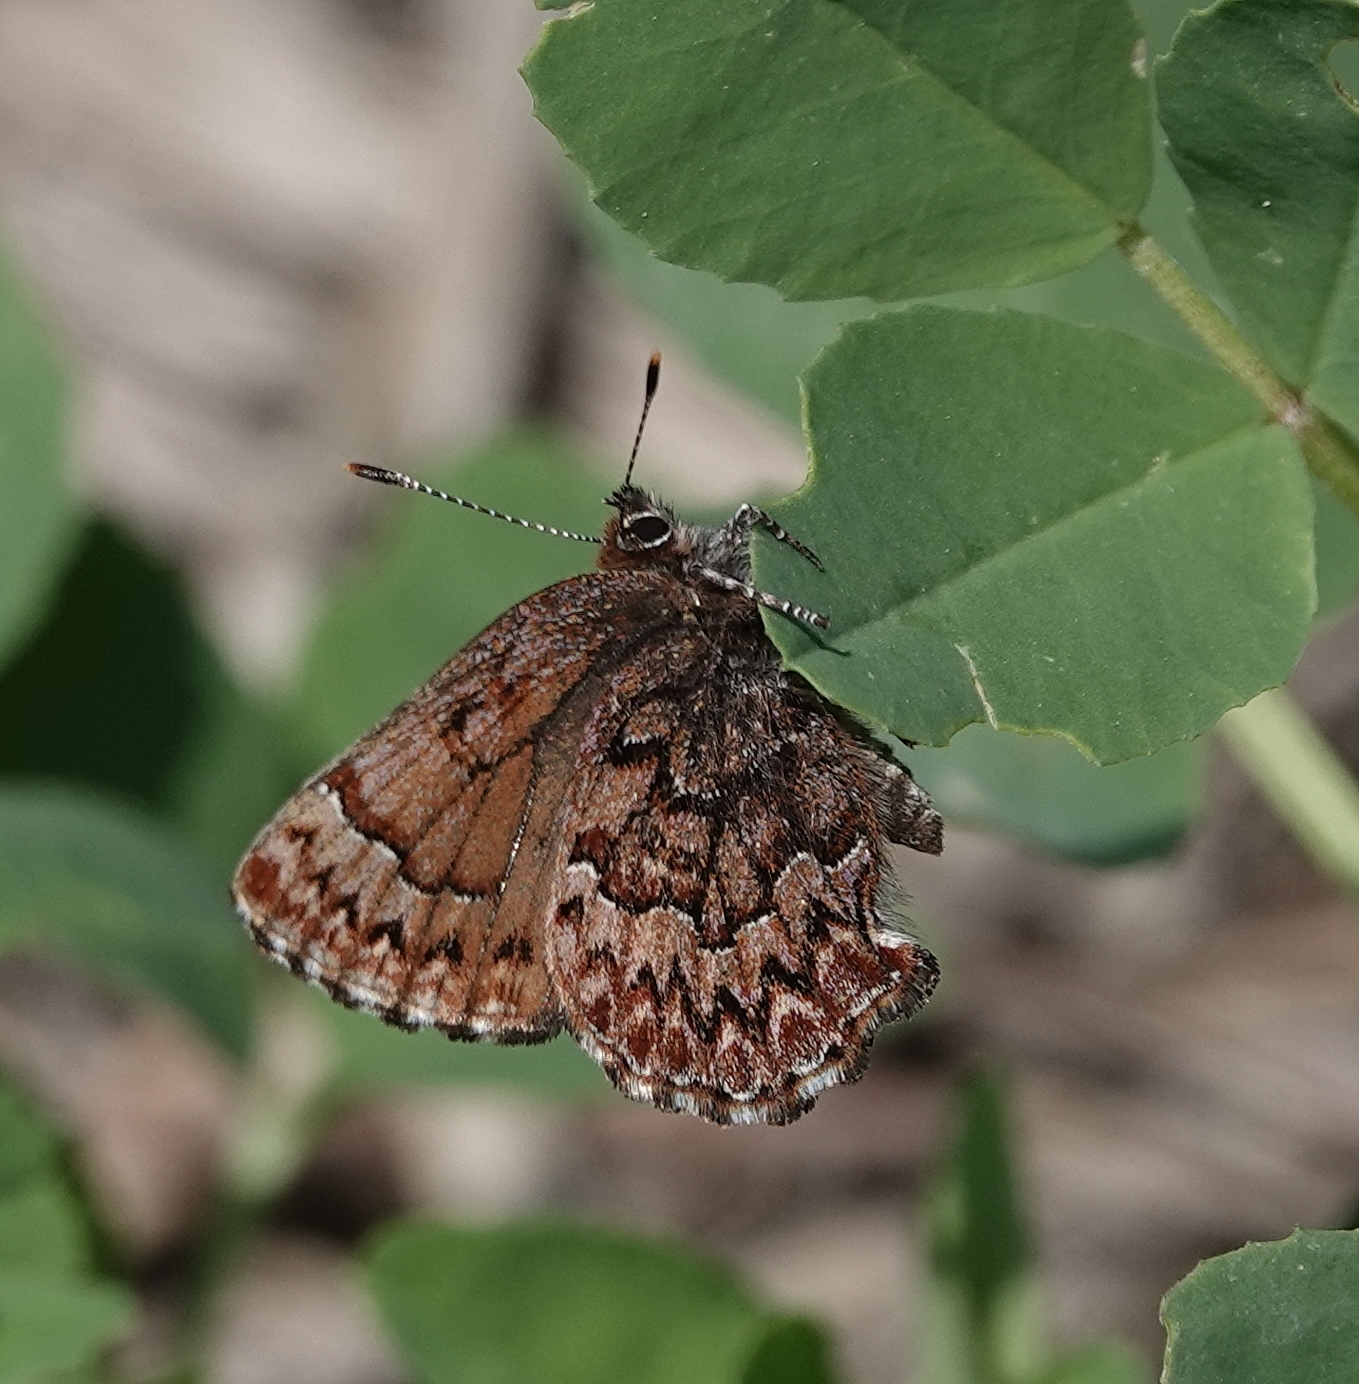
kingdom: Animalia
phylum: Arthropoda
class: Insecta
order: Lepidoptera
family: Lycaenidae
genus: Incisalia
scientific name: Incisalia eryphon
